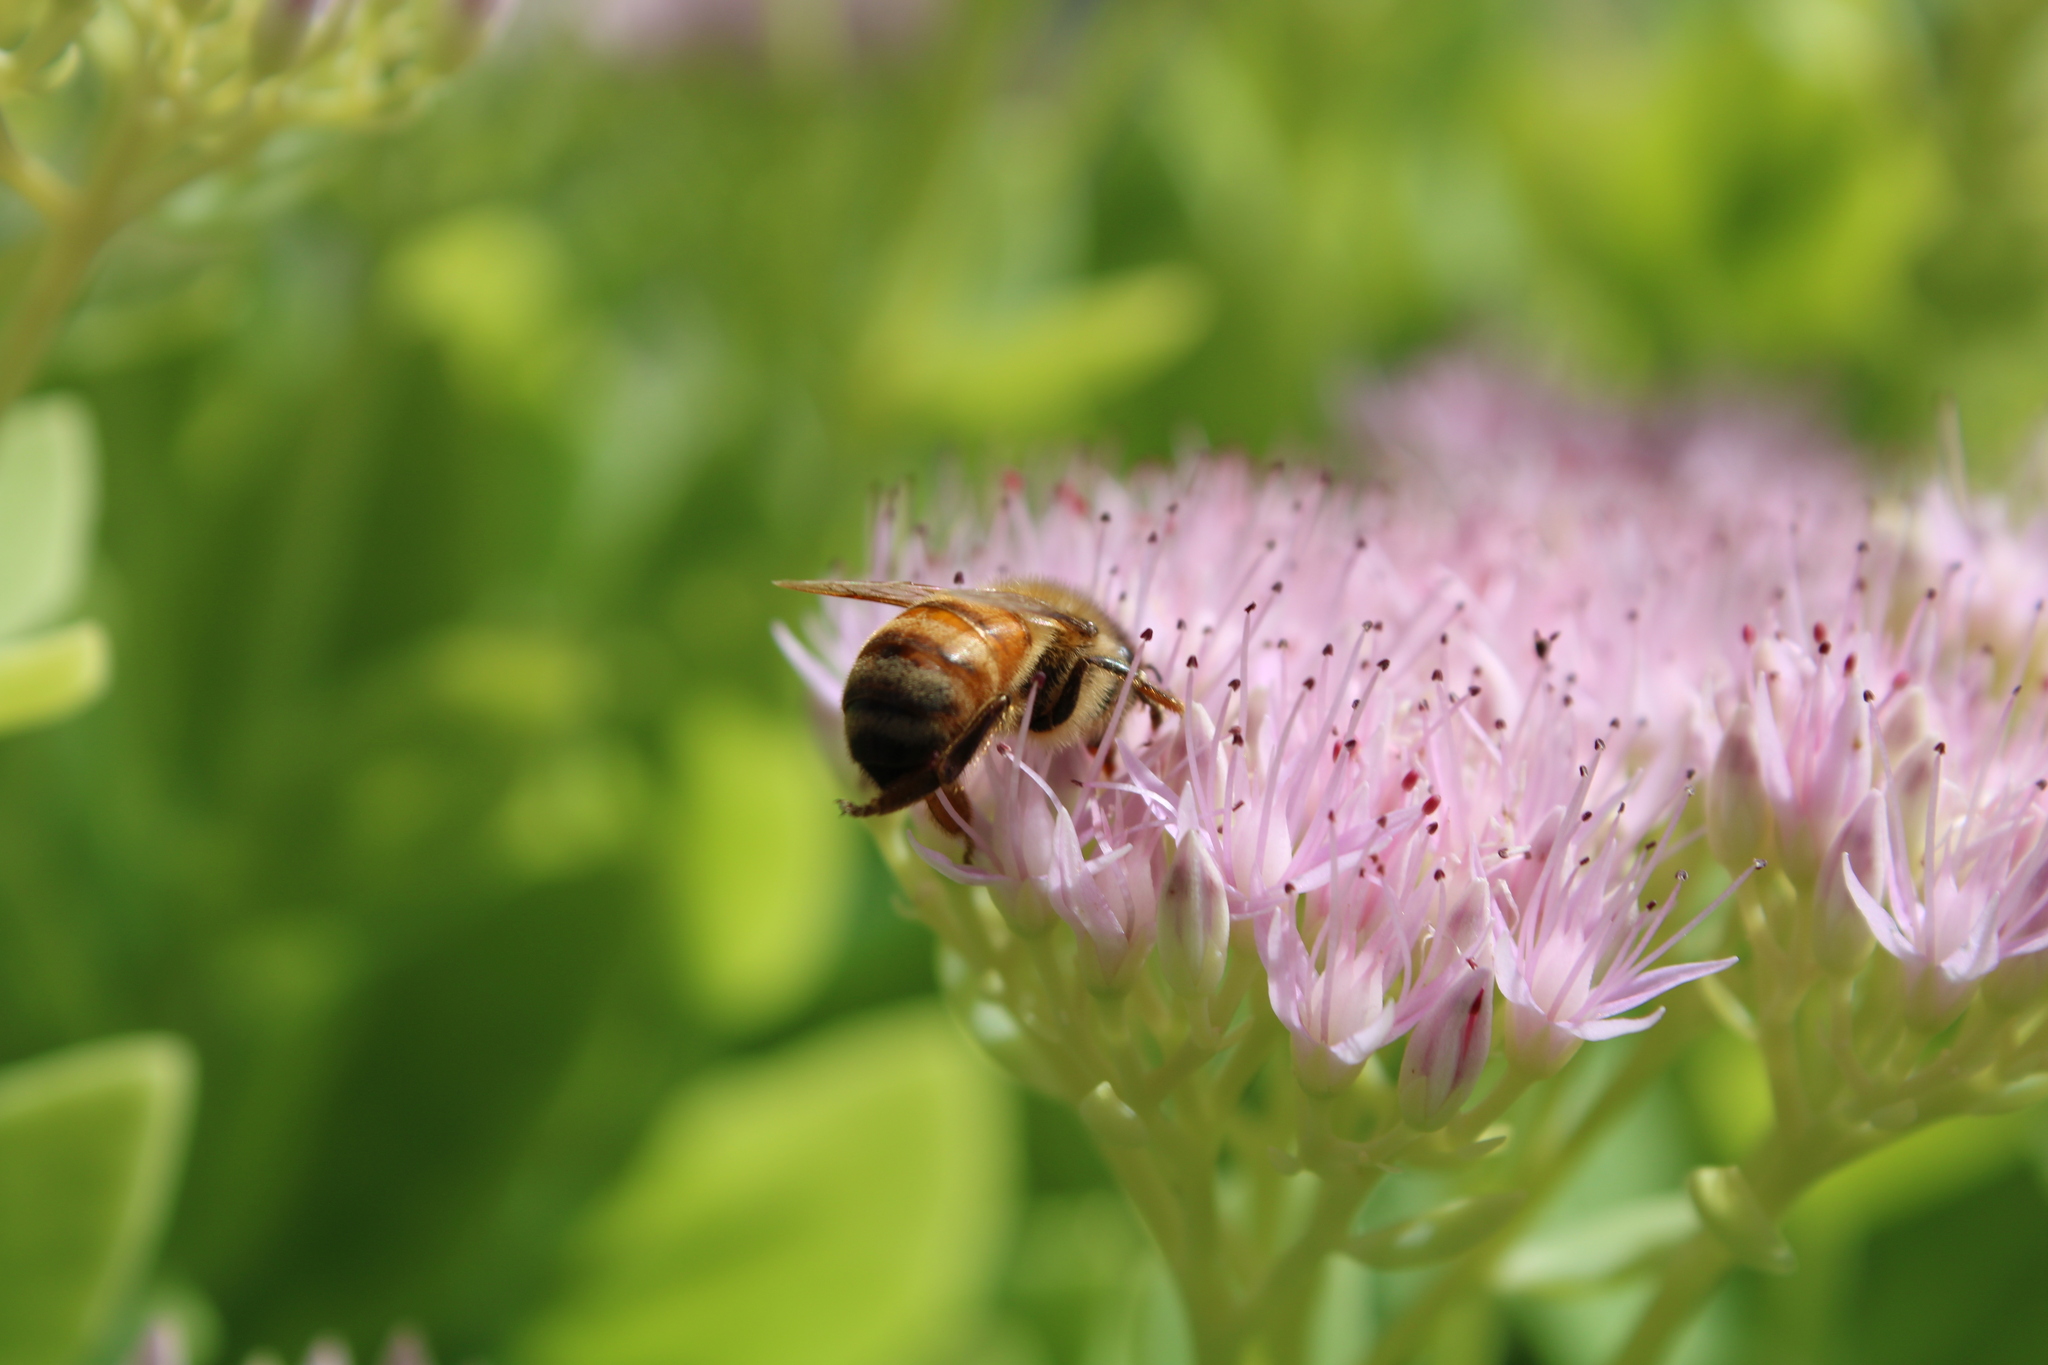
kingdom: Animalia
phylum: Arthropoda
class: Insecta
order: Hymenoptera
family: Apidae
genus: Apis
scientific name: Apis mellifera
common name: Honey bee
